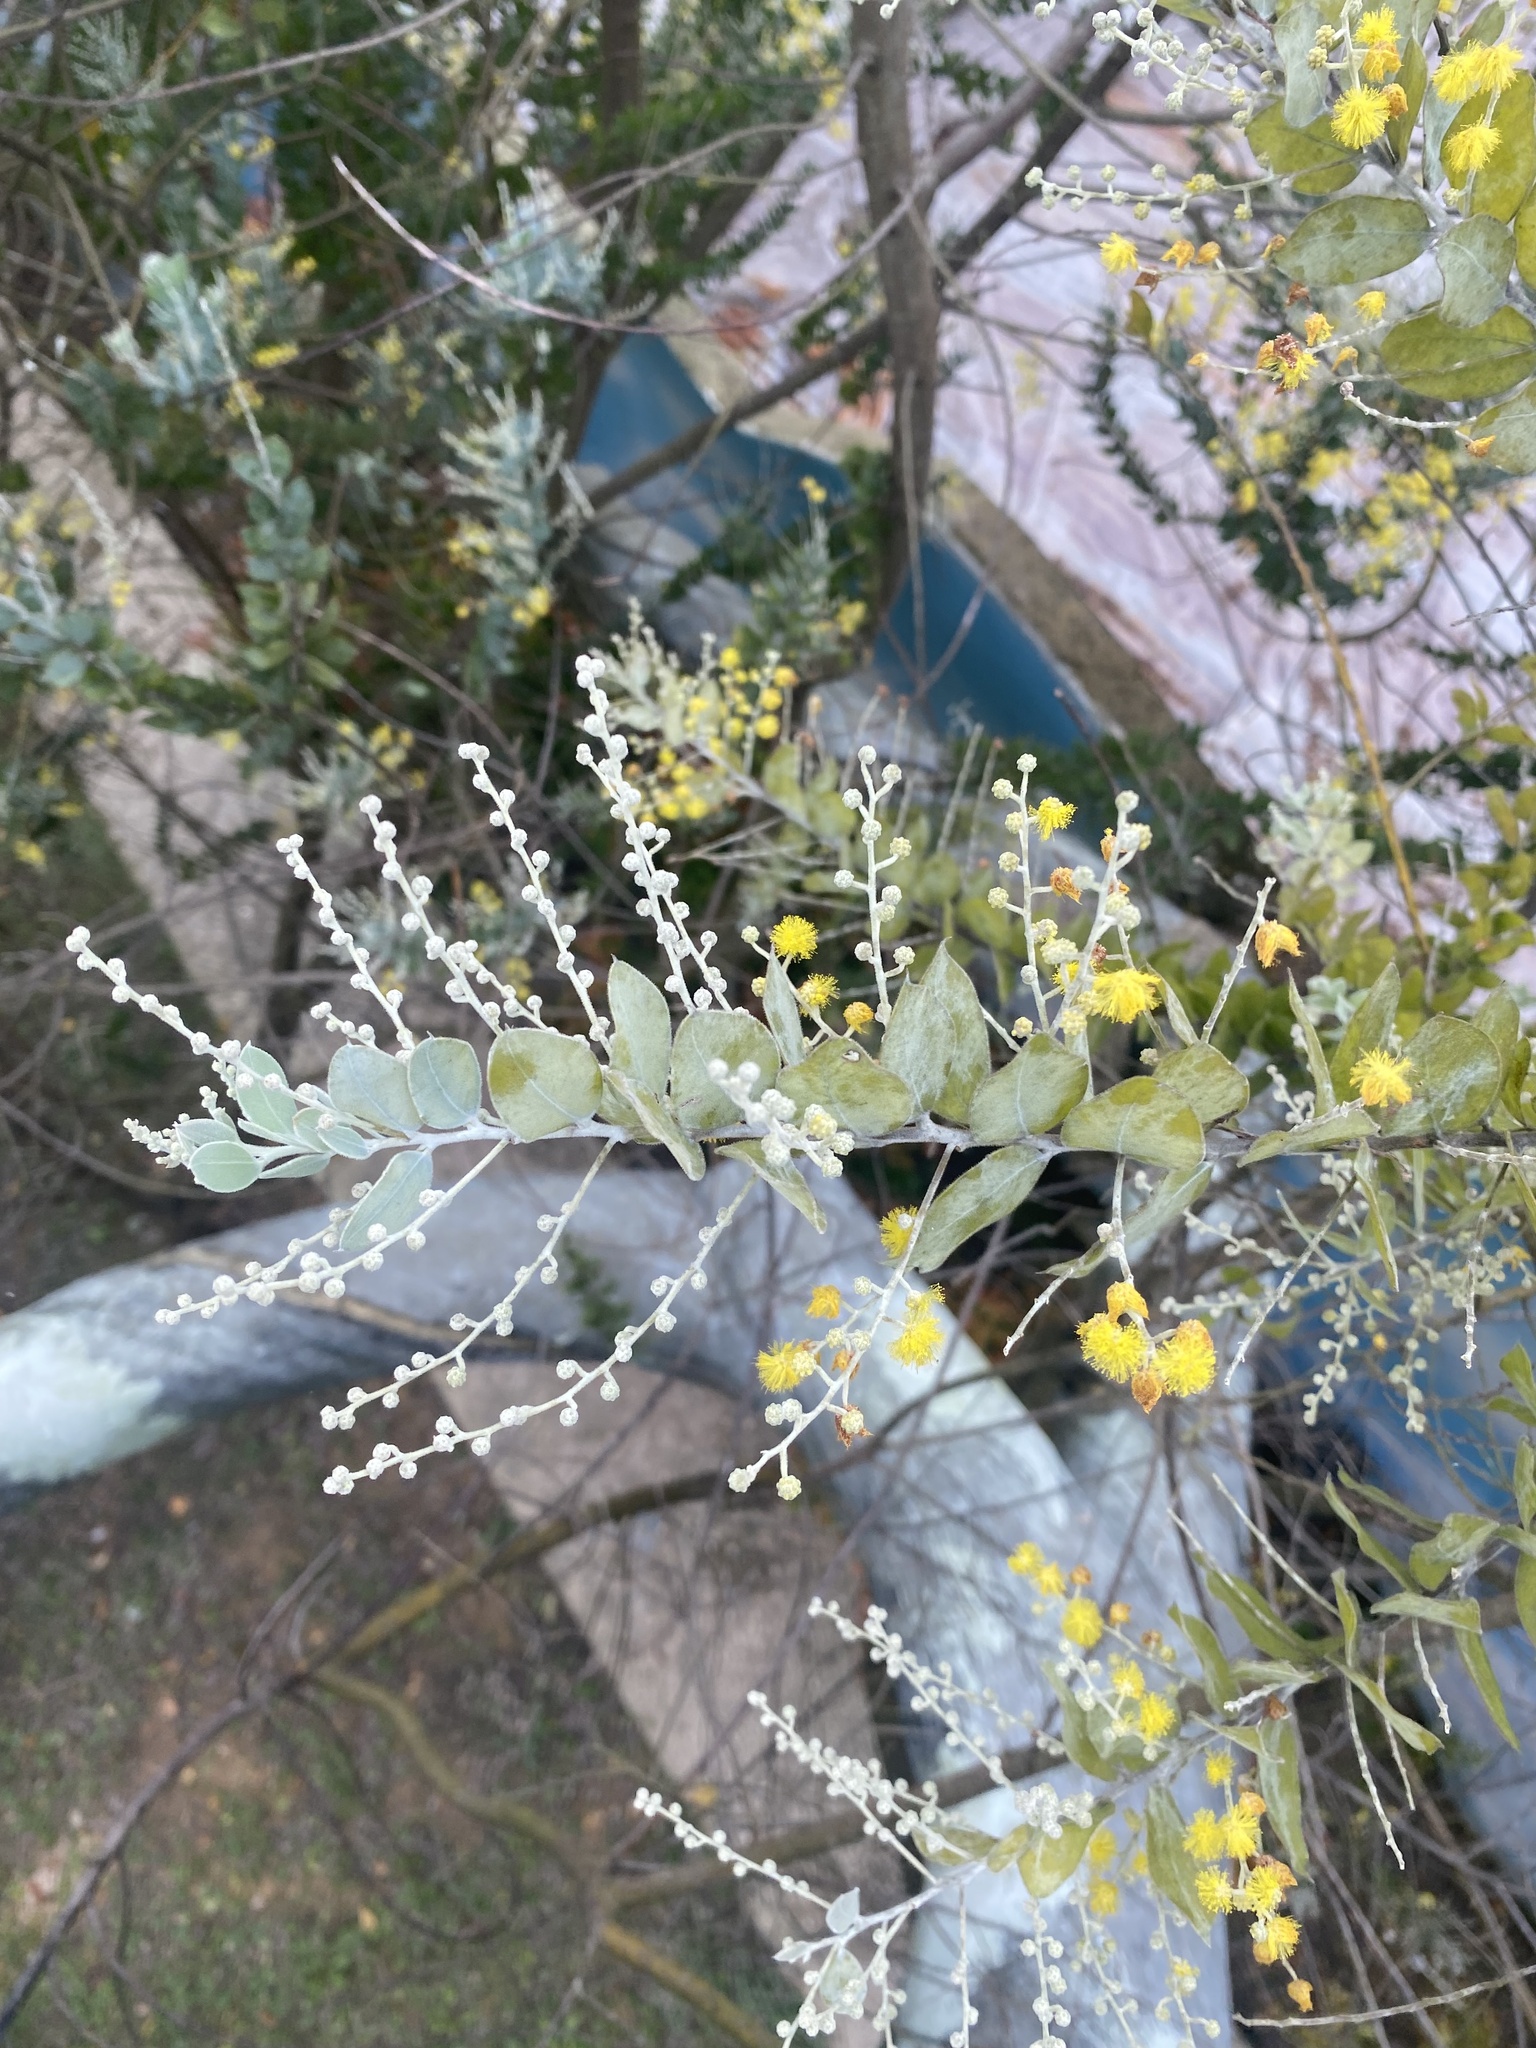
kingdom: Plantae
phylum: Tracheophyta
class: Magnoliopsida
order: Fabales
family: Fabaceae
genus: Acacia
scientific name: Acacia podalyriifolia
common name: Pearl wattle
